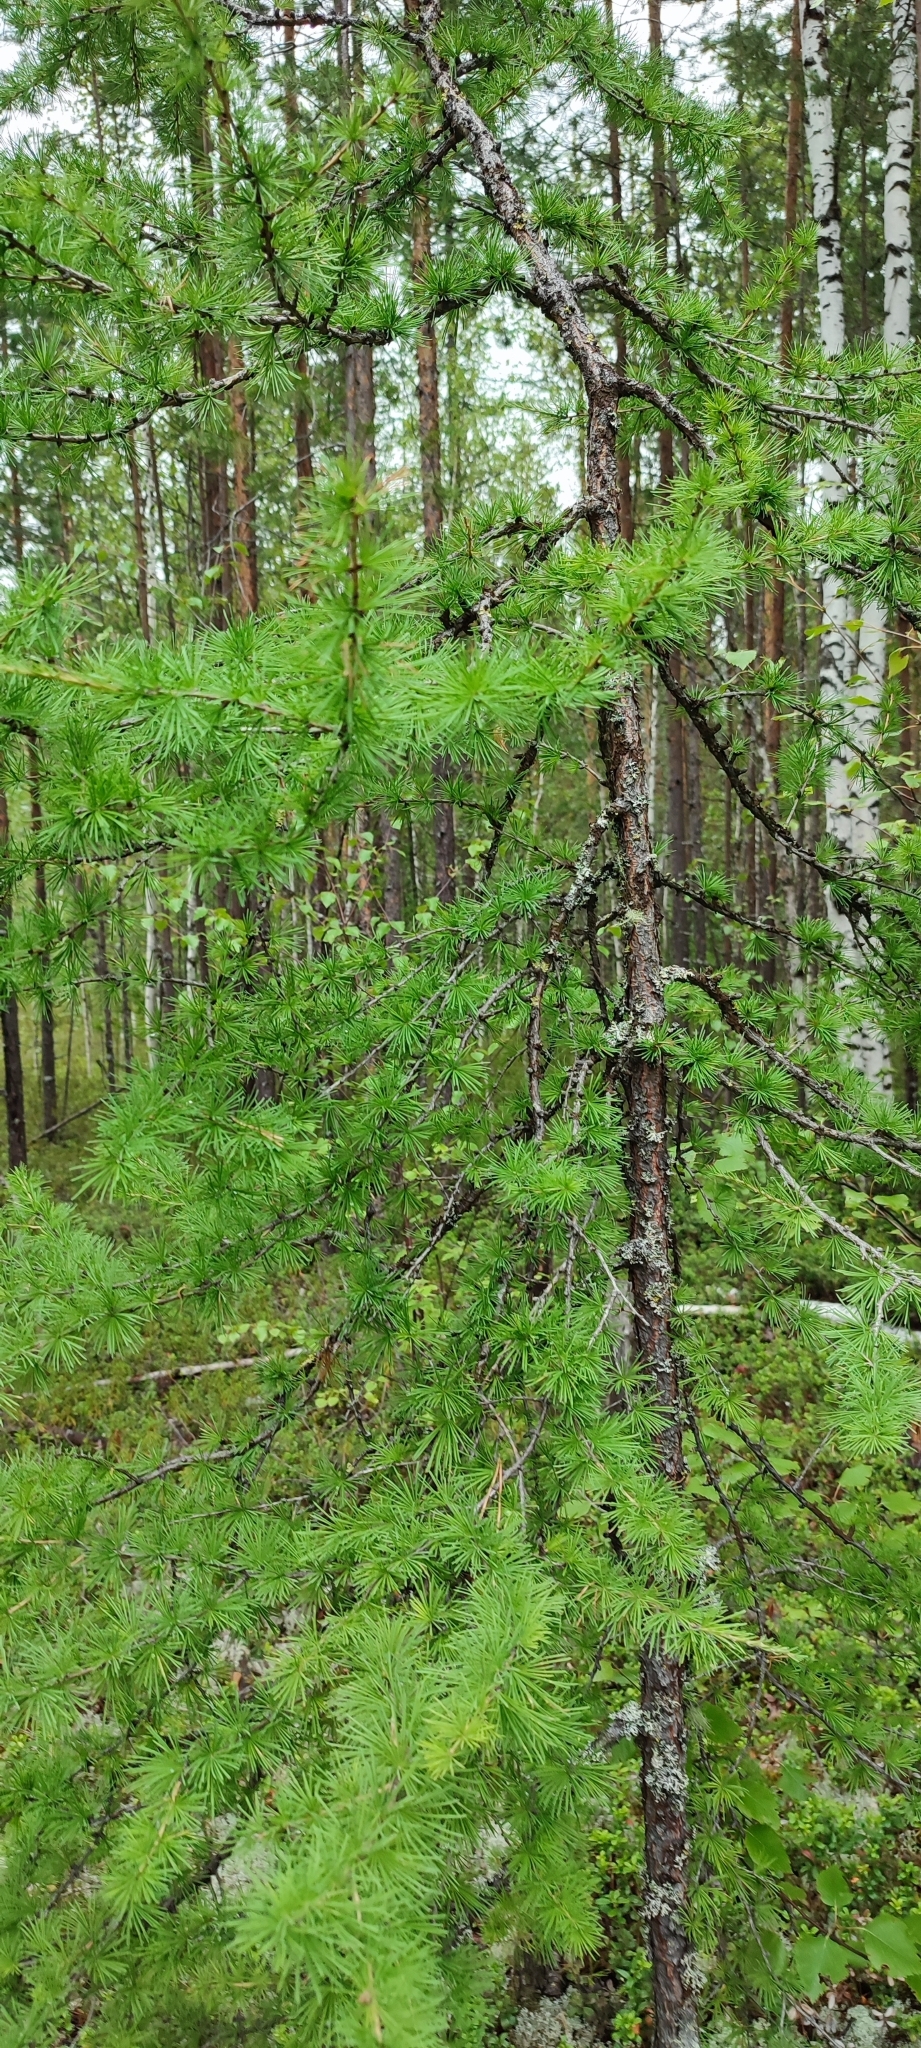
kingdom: Plantae
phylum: Tracheophyta
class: Pinopsida
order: Pinales
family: Pinaceae
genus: Larix
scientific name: Larix sibirica
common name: Siberian larch
